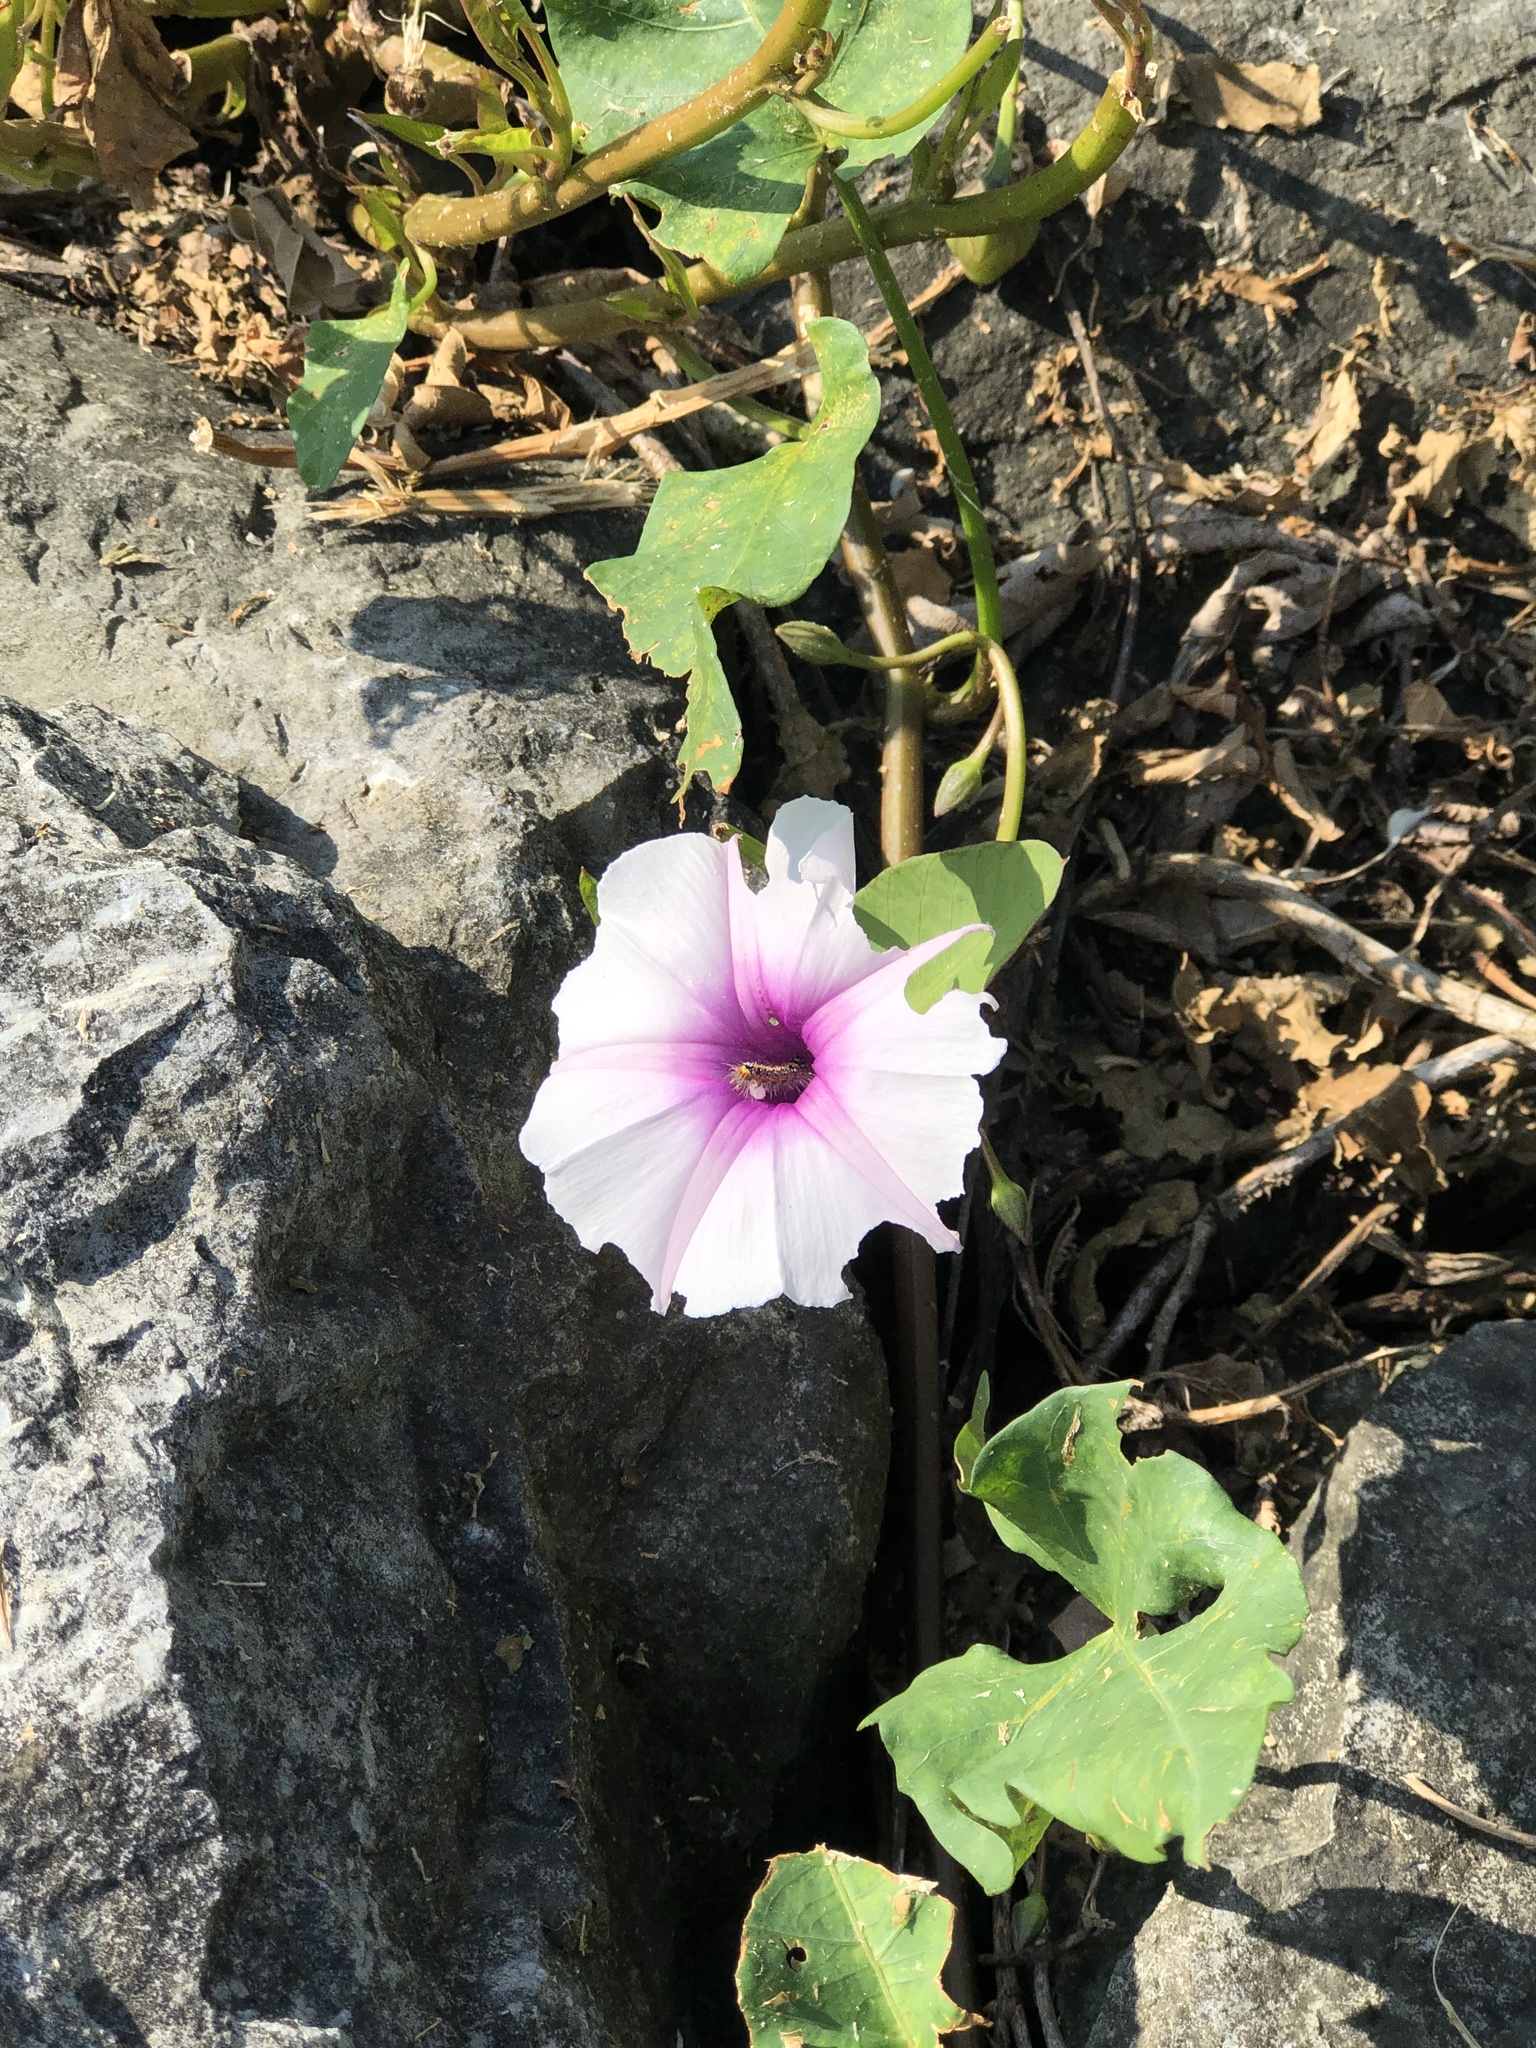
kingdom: Plantae
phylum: Tracheophyta
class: Magnoliopsida
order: Solanales
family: Convolvulaceae
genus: Ipomoea
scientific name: Ipomoea aquatica
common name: Swamp morning-glory
